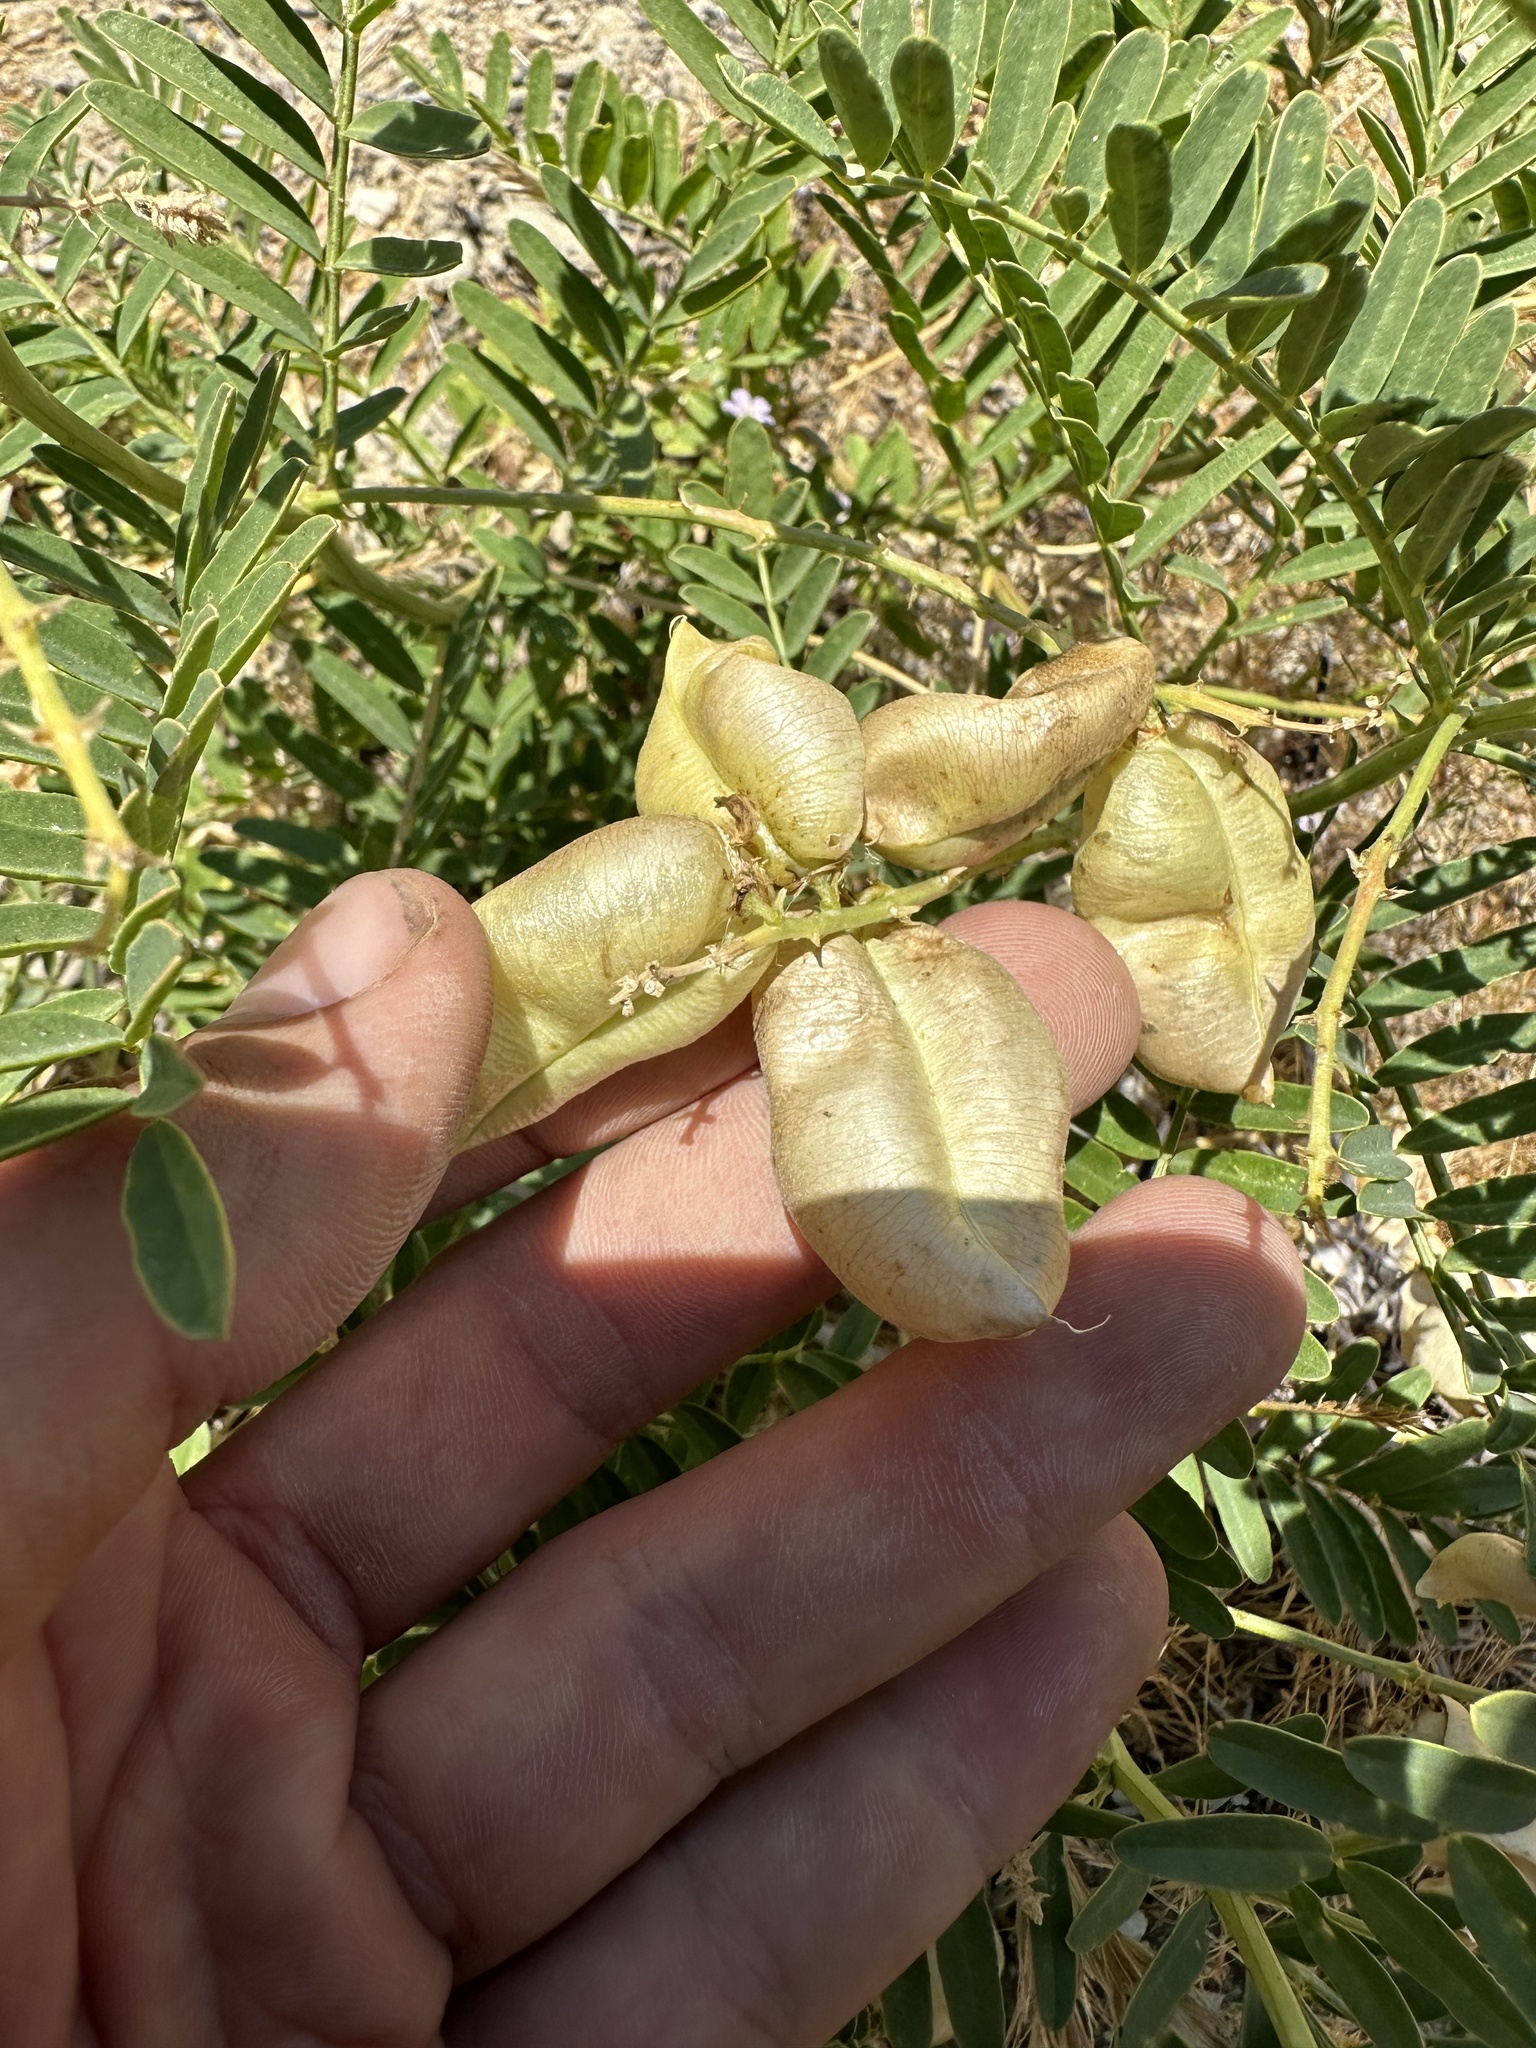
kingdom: Plantae
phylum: Tracheophyta
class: Magnoliopsida
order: Fabales
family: Fabaceae
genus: Astragalus
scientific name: Astragalus douglasii
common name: Jacumba milkvetch
